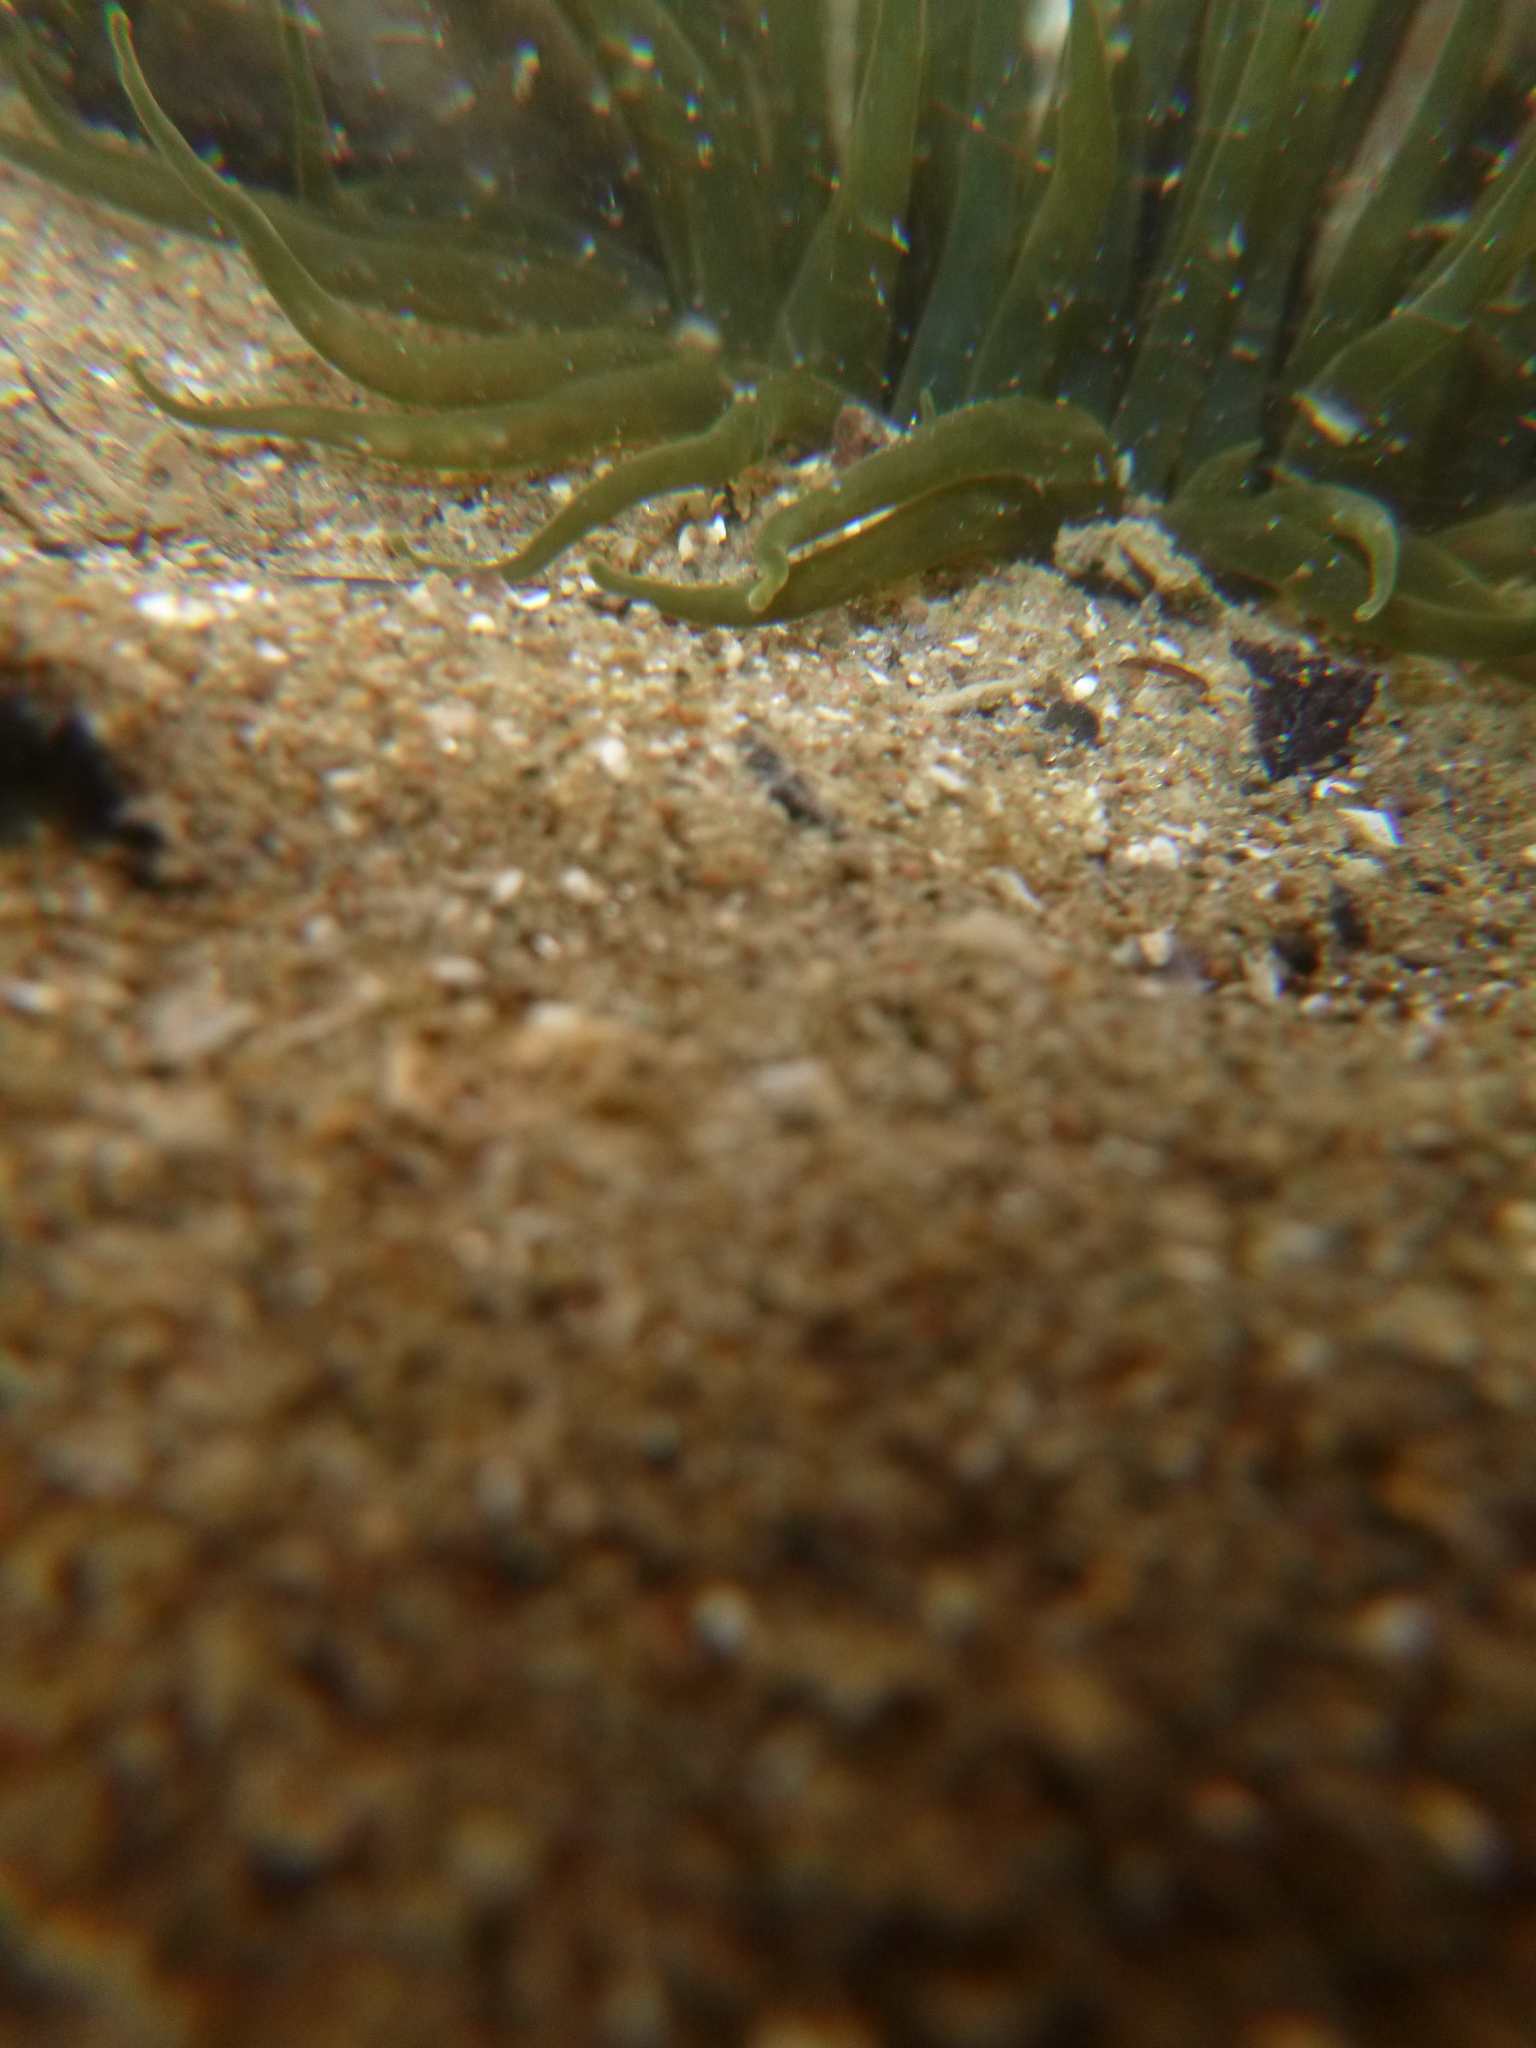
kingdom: Animalia
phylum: Cnidaria
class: Anthozoa
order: Actiniaria
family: Actiniidae
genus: Isactinia
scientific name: Isactinia olivacea
